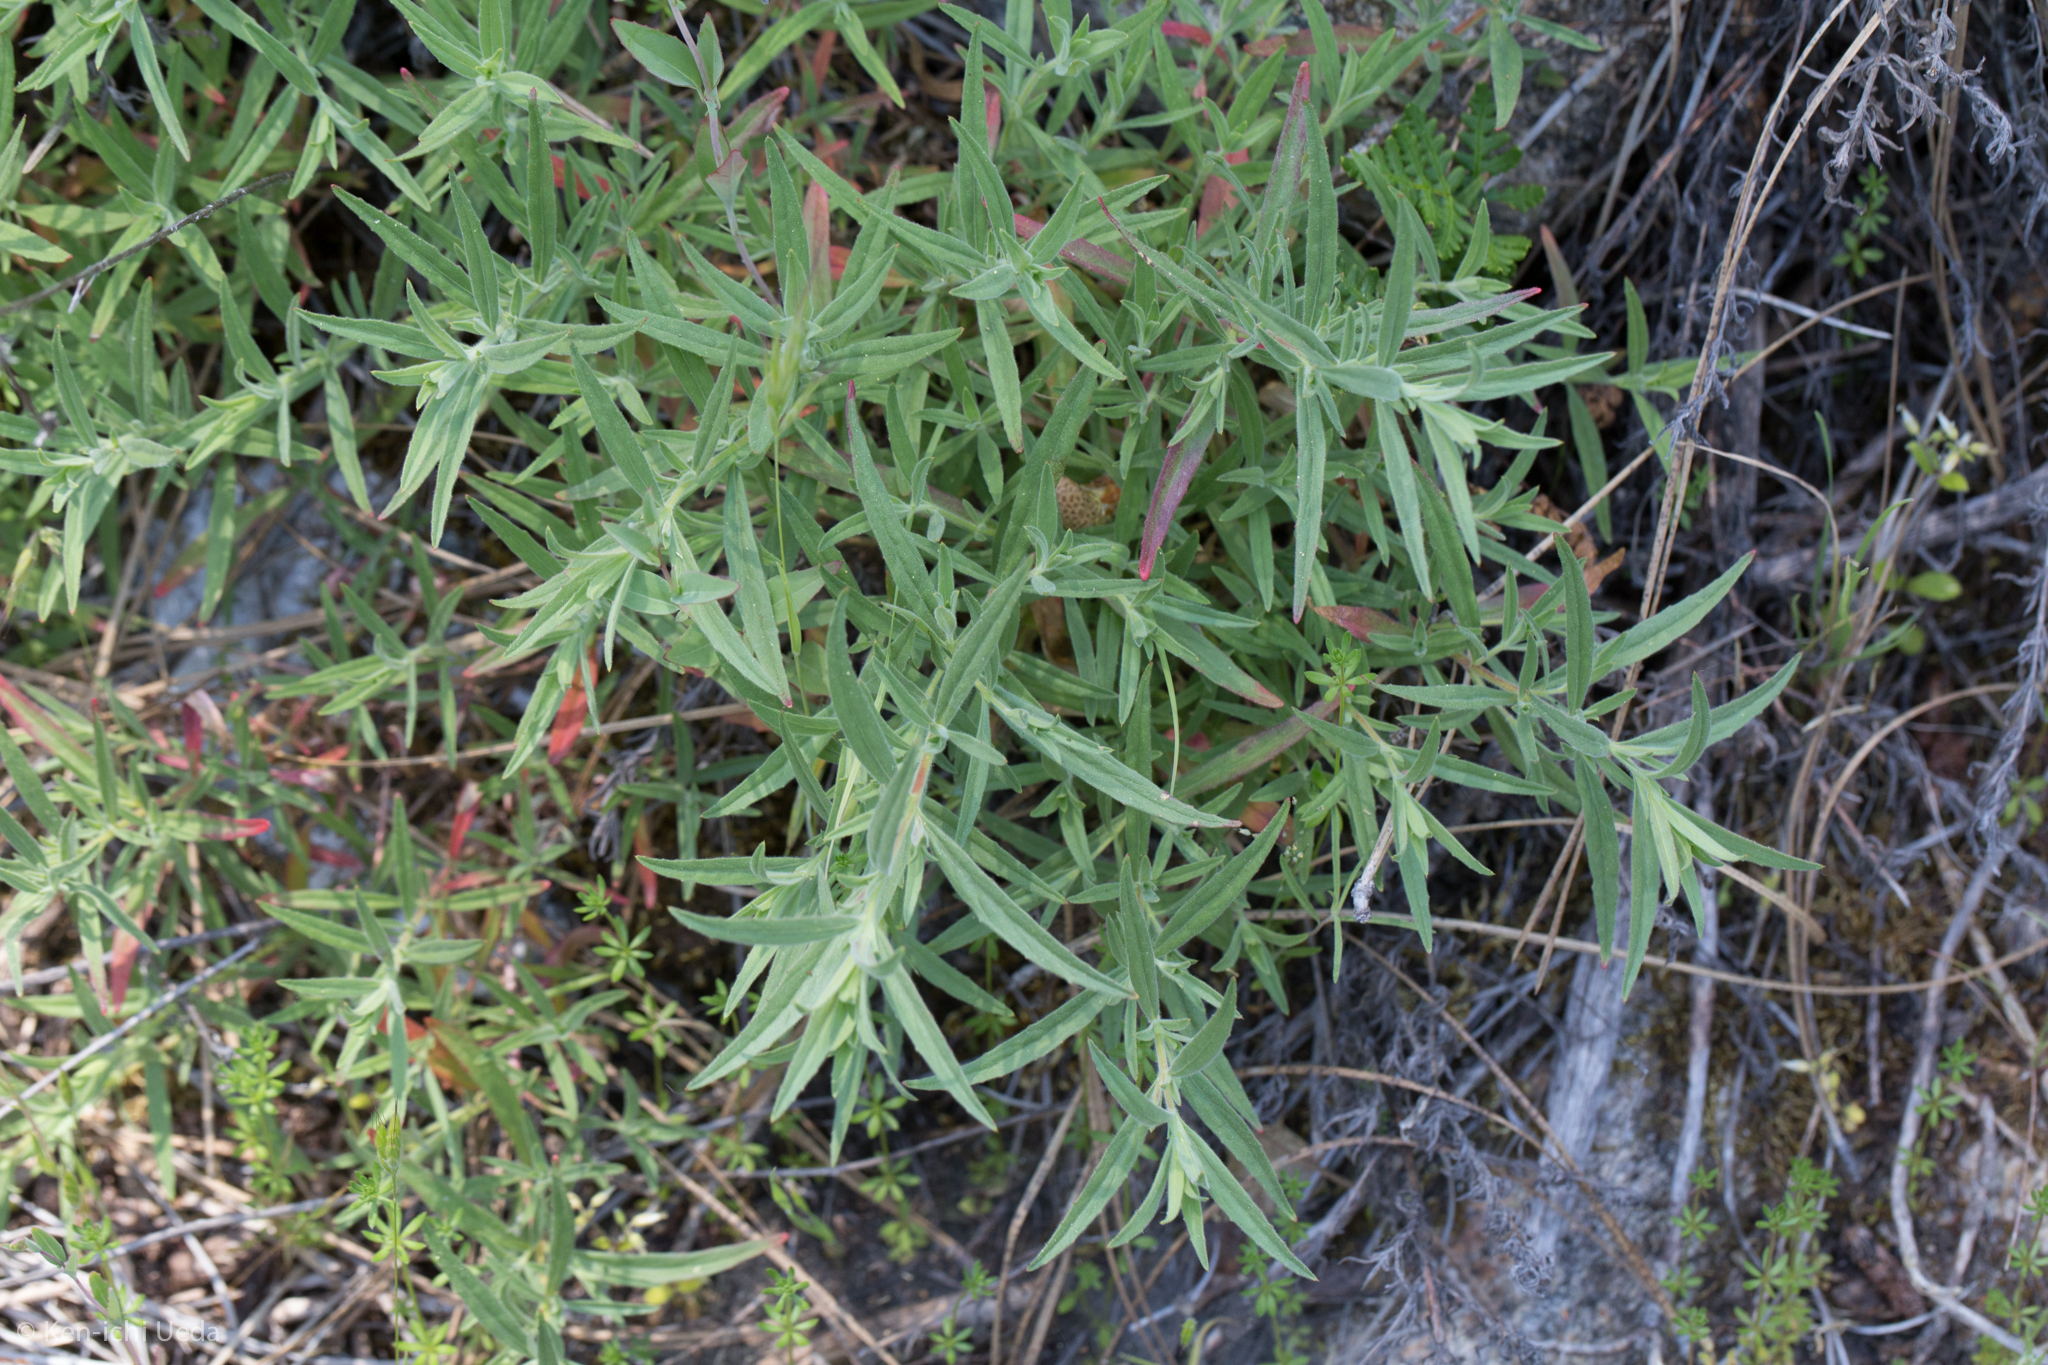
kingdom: Plantae
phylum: Tracheophyta
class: Magnoliopsida
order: Myrtales
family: Onagraceae
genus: Epilobium
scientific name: Epilobium canum
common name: California-fuchsia
